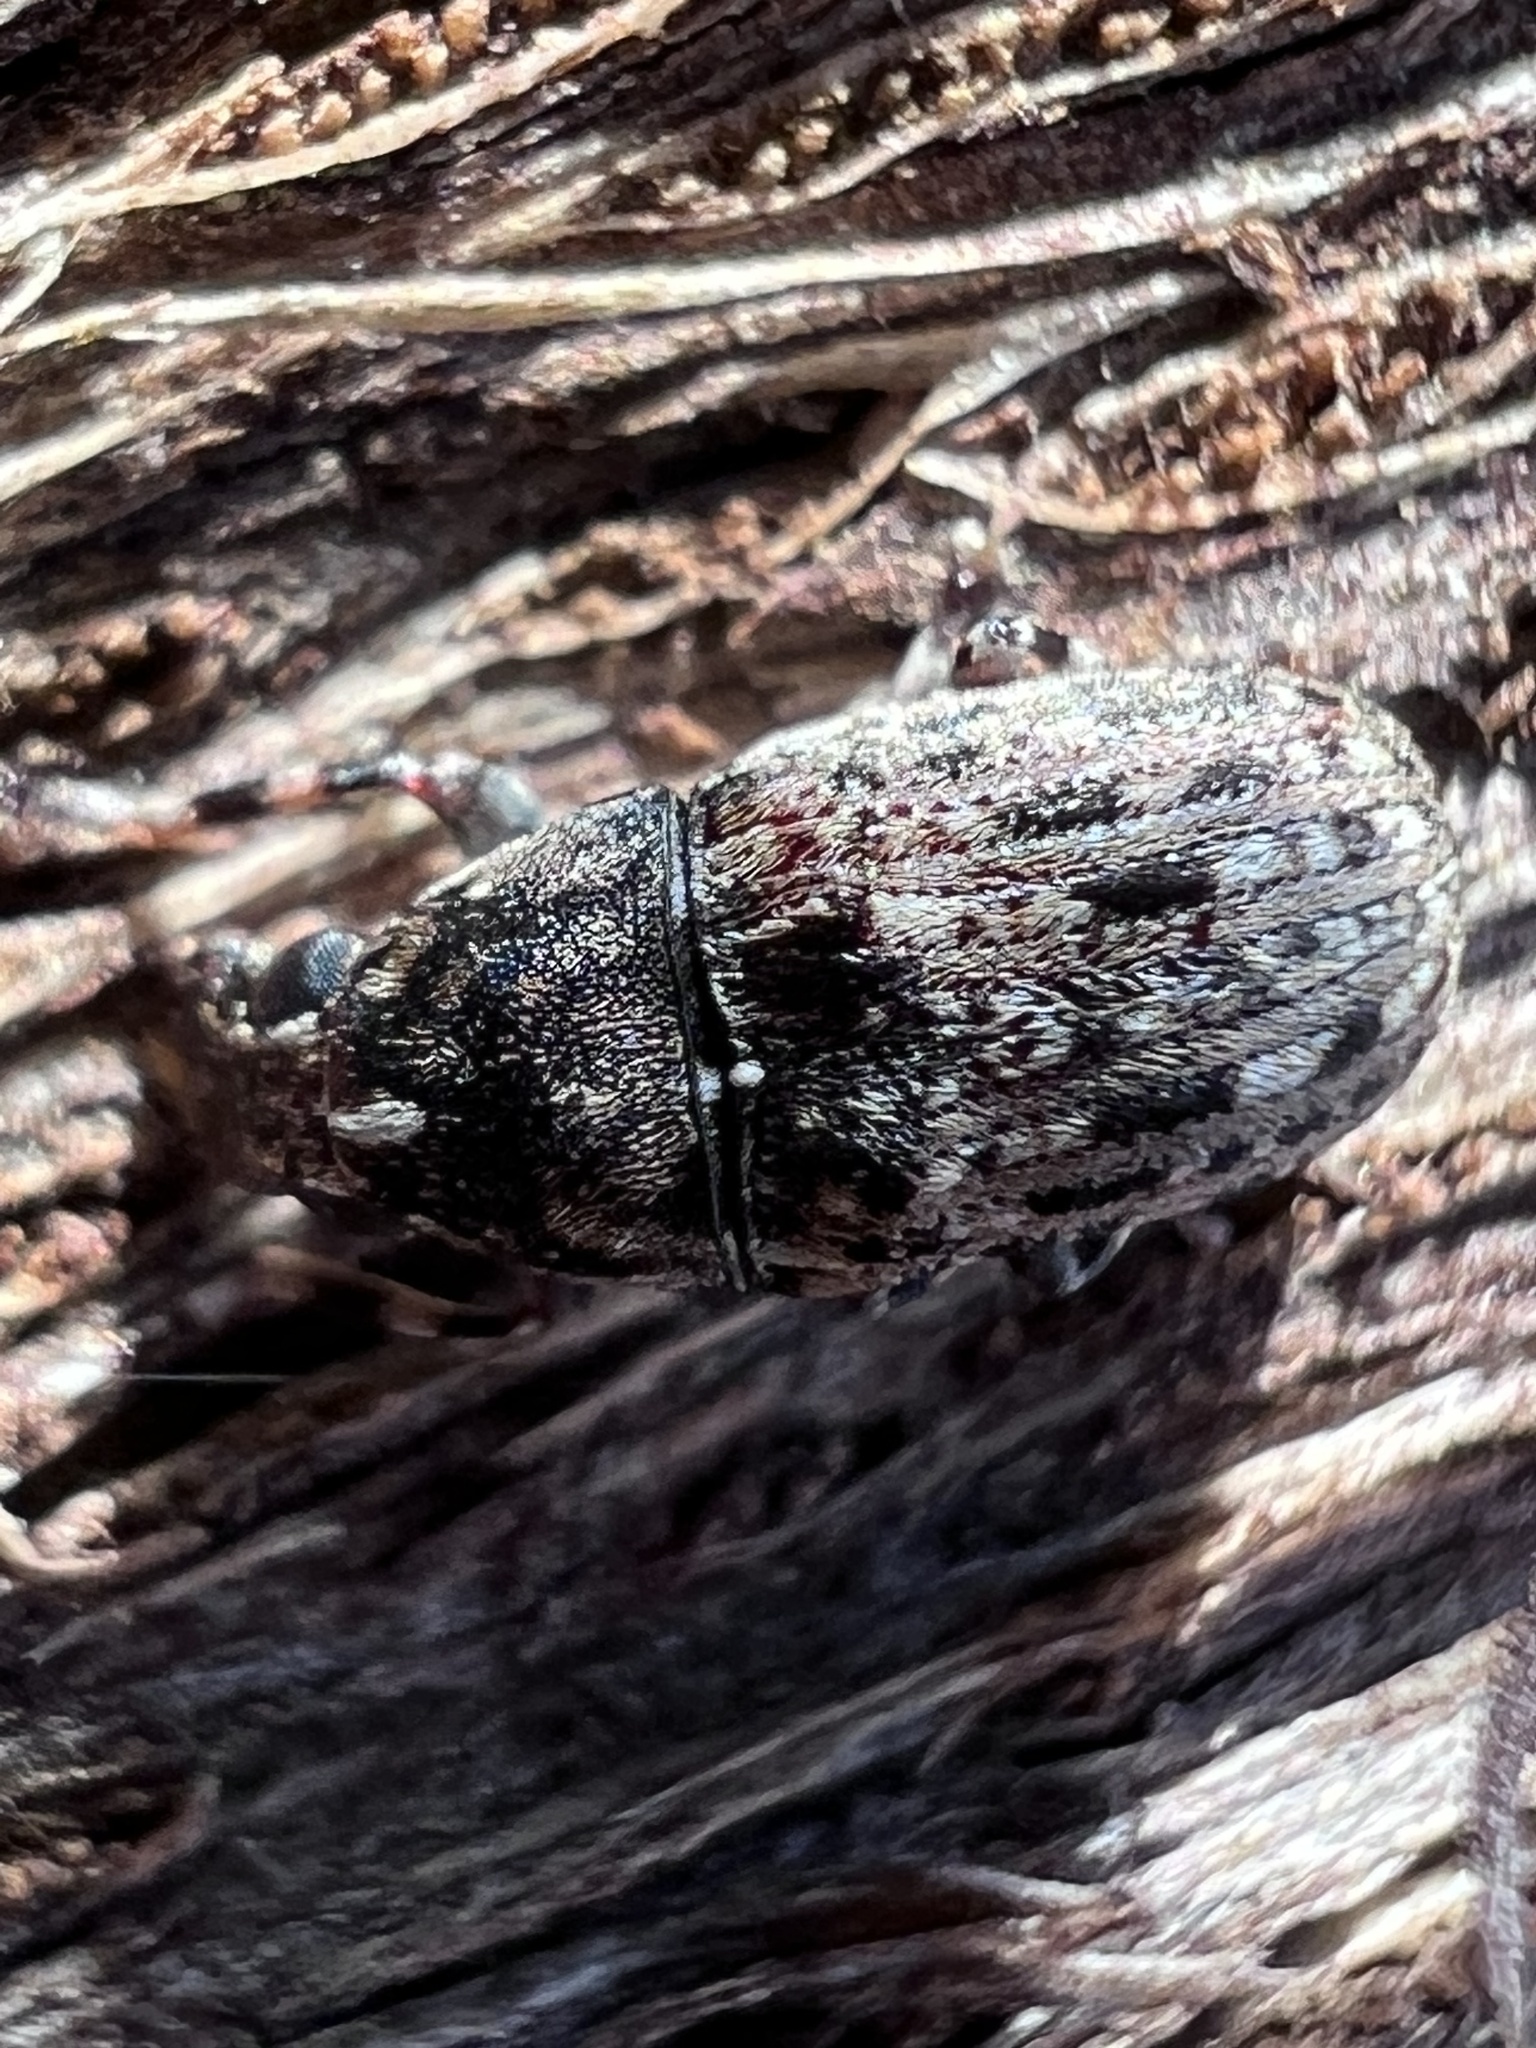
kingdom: Animalia
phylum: Arthropoda
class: Insecta
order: Coleoptera
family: Anthribidae
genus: Piesocorynus
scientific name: Piesocorynus mixtus
